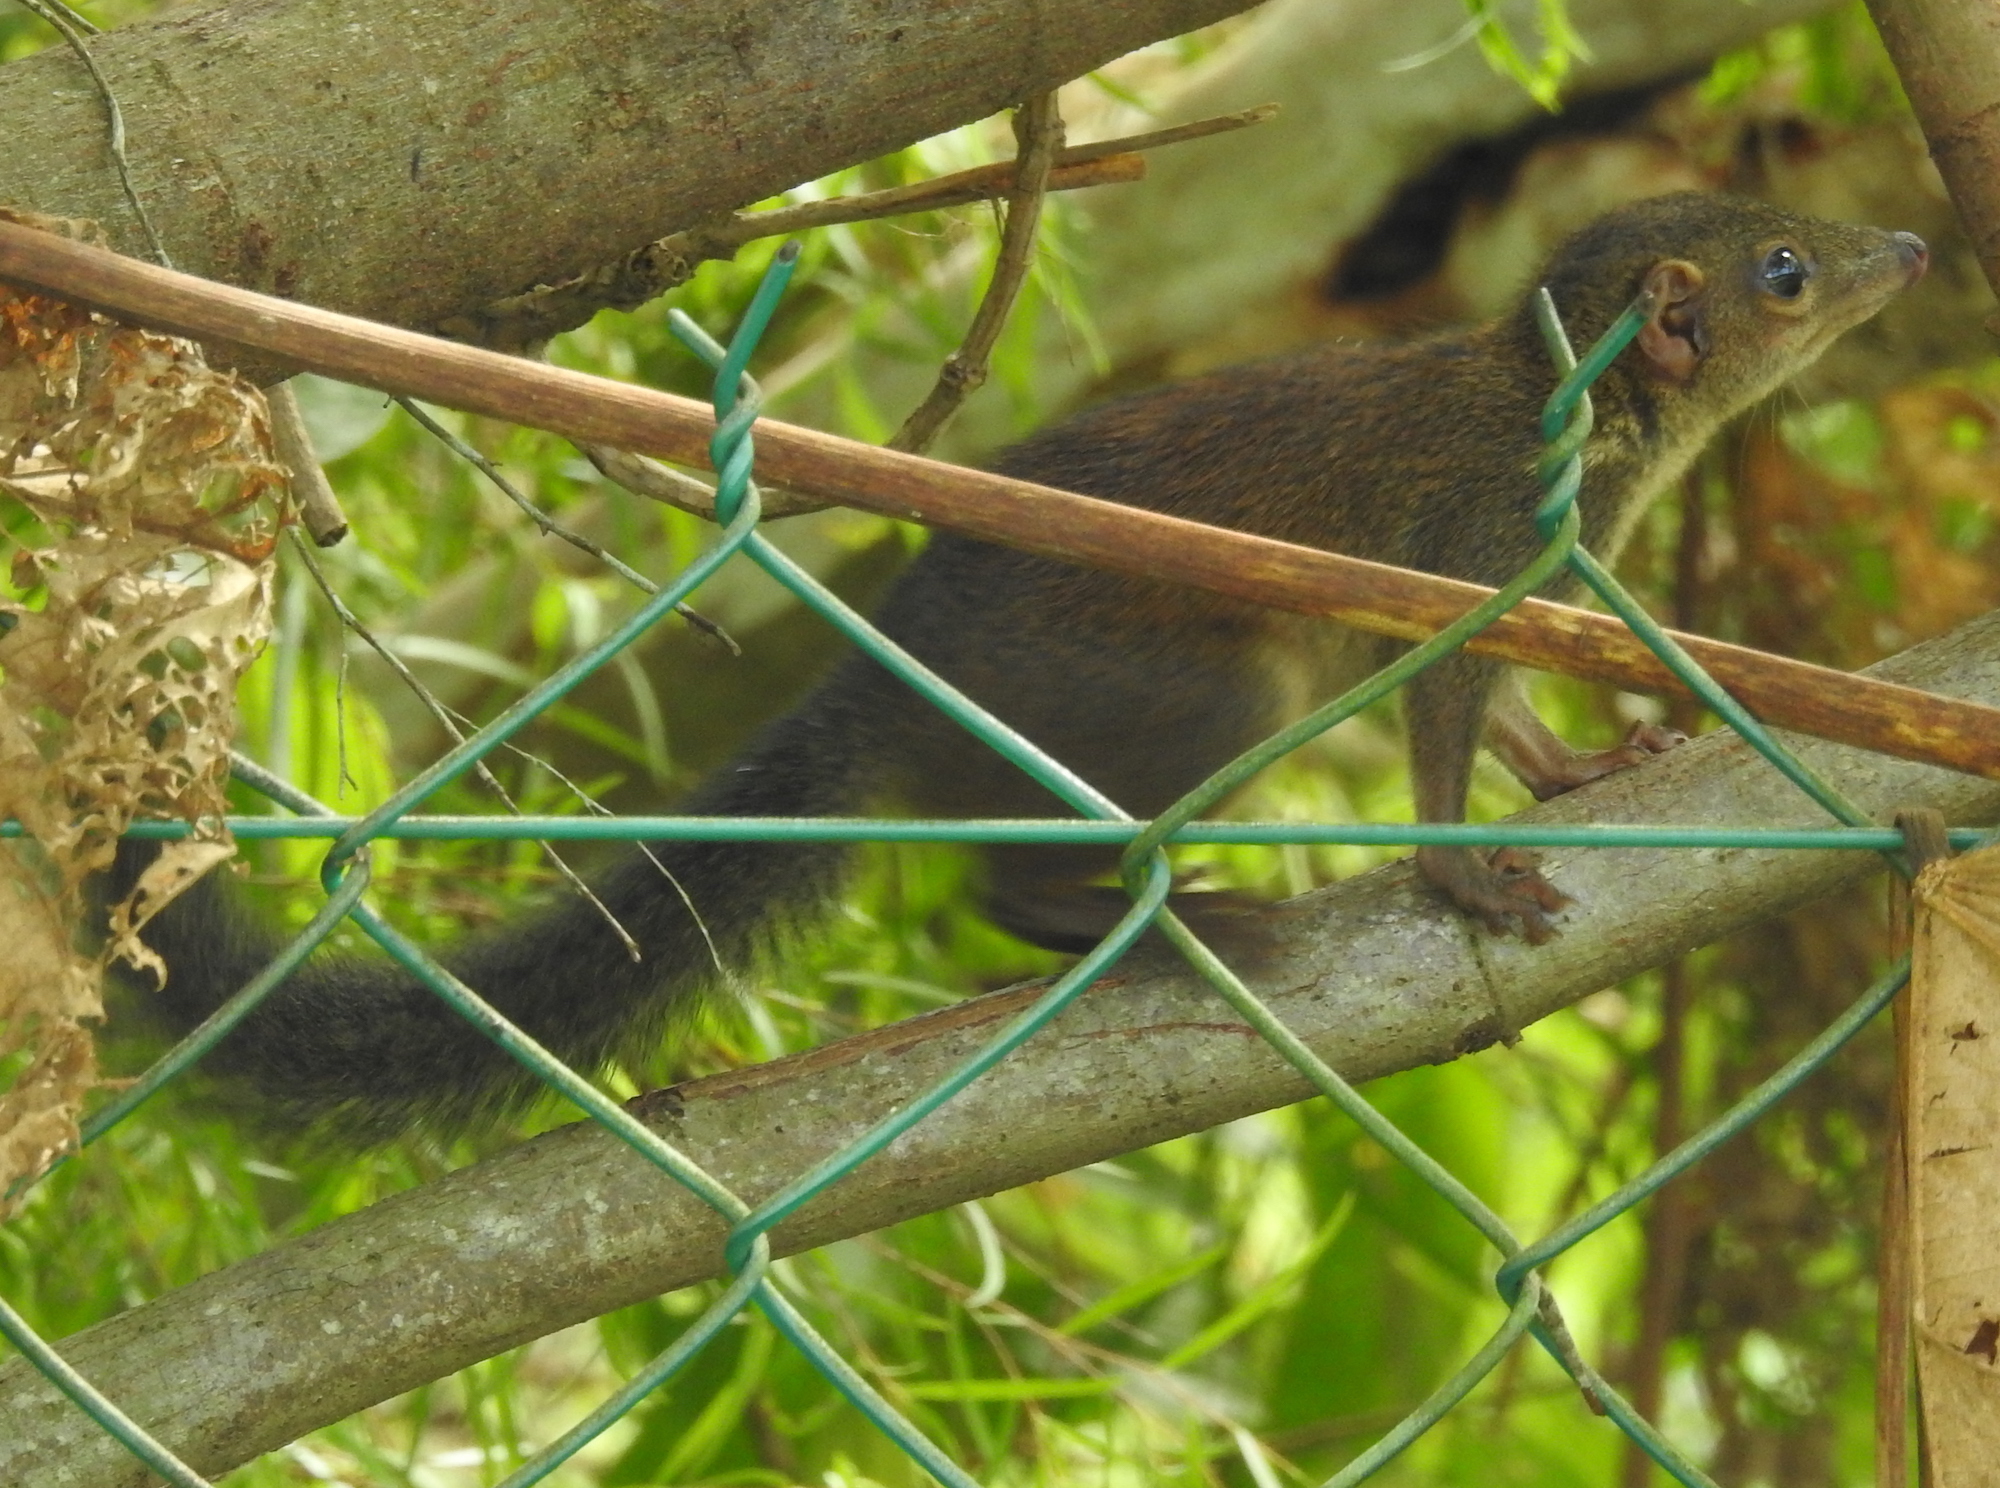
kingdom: Animalia
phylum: Chordata
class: Mammalia
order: Scandentia
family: Tupaiidae
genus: Tupaia
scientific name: Tupaia glis
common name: Common treeshrew
